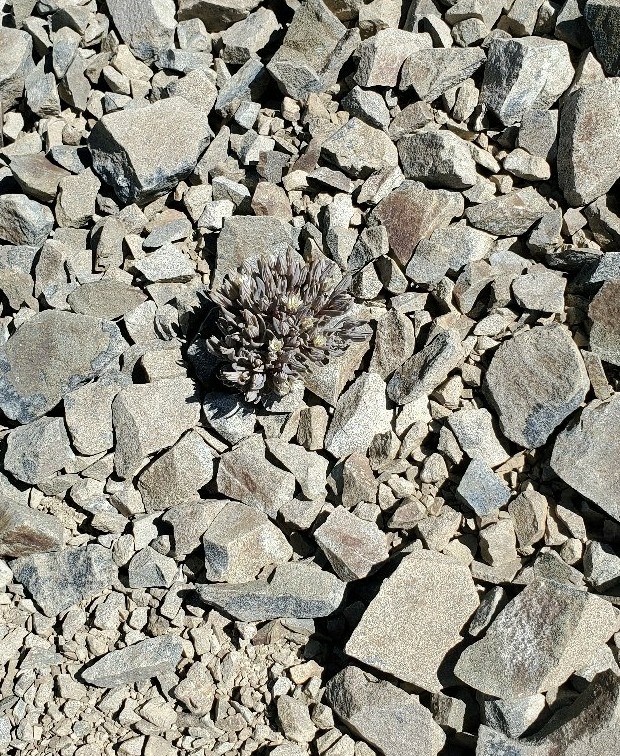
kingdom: Plantae
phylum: Tracheophyta
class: Magnoliopsida
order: Caryophyllales
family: Caryophyllaceae
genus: Stellaria
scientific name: Stellaria roughii
